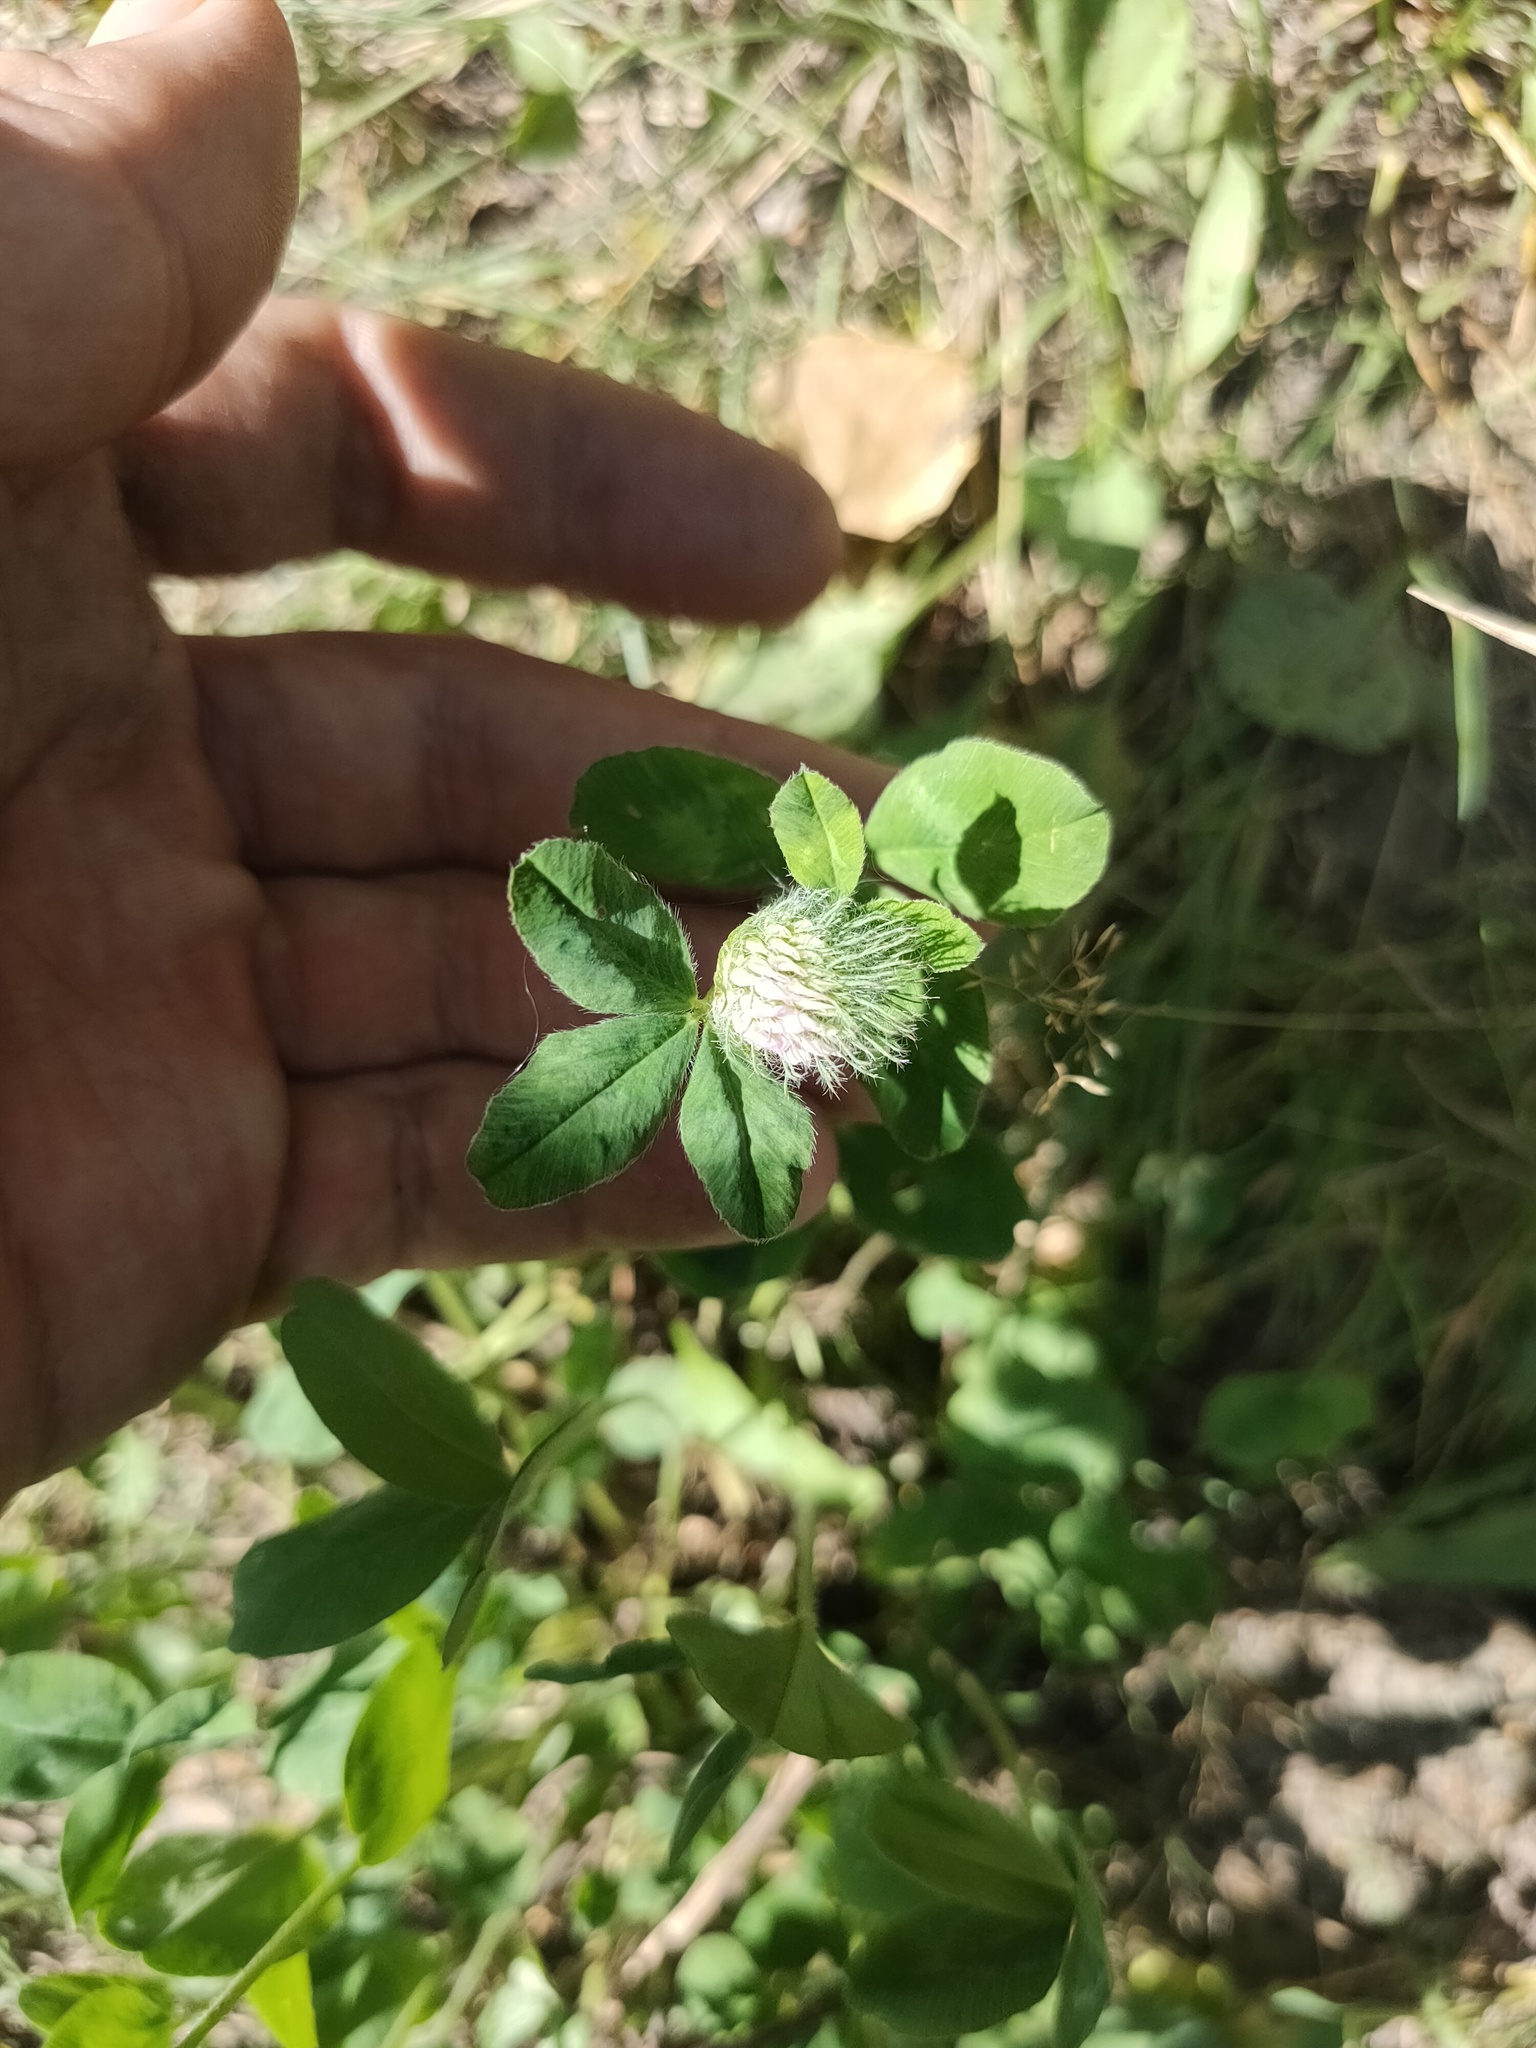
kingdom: Plantae
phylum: Tracheophyta
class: Magnoliopsida
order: Fabales
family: Fabaceae
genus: Trifolium
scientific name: Trifolium pratense
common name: Red clover
